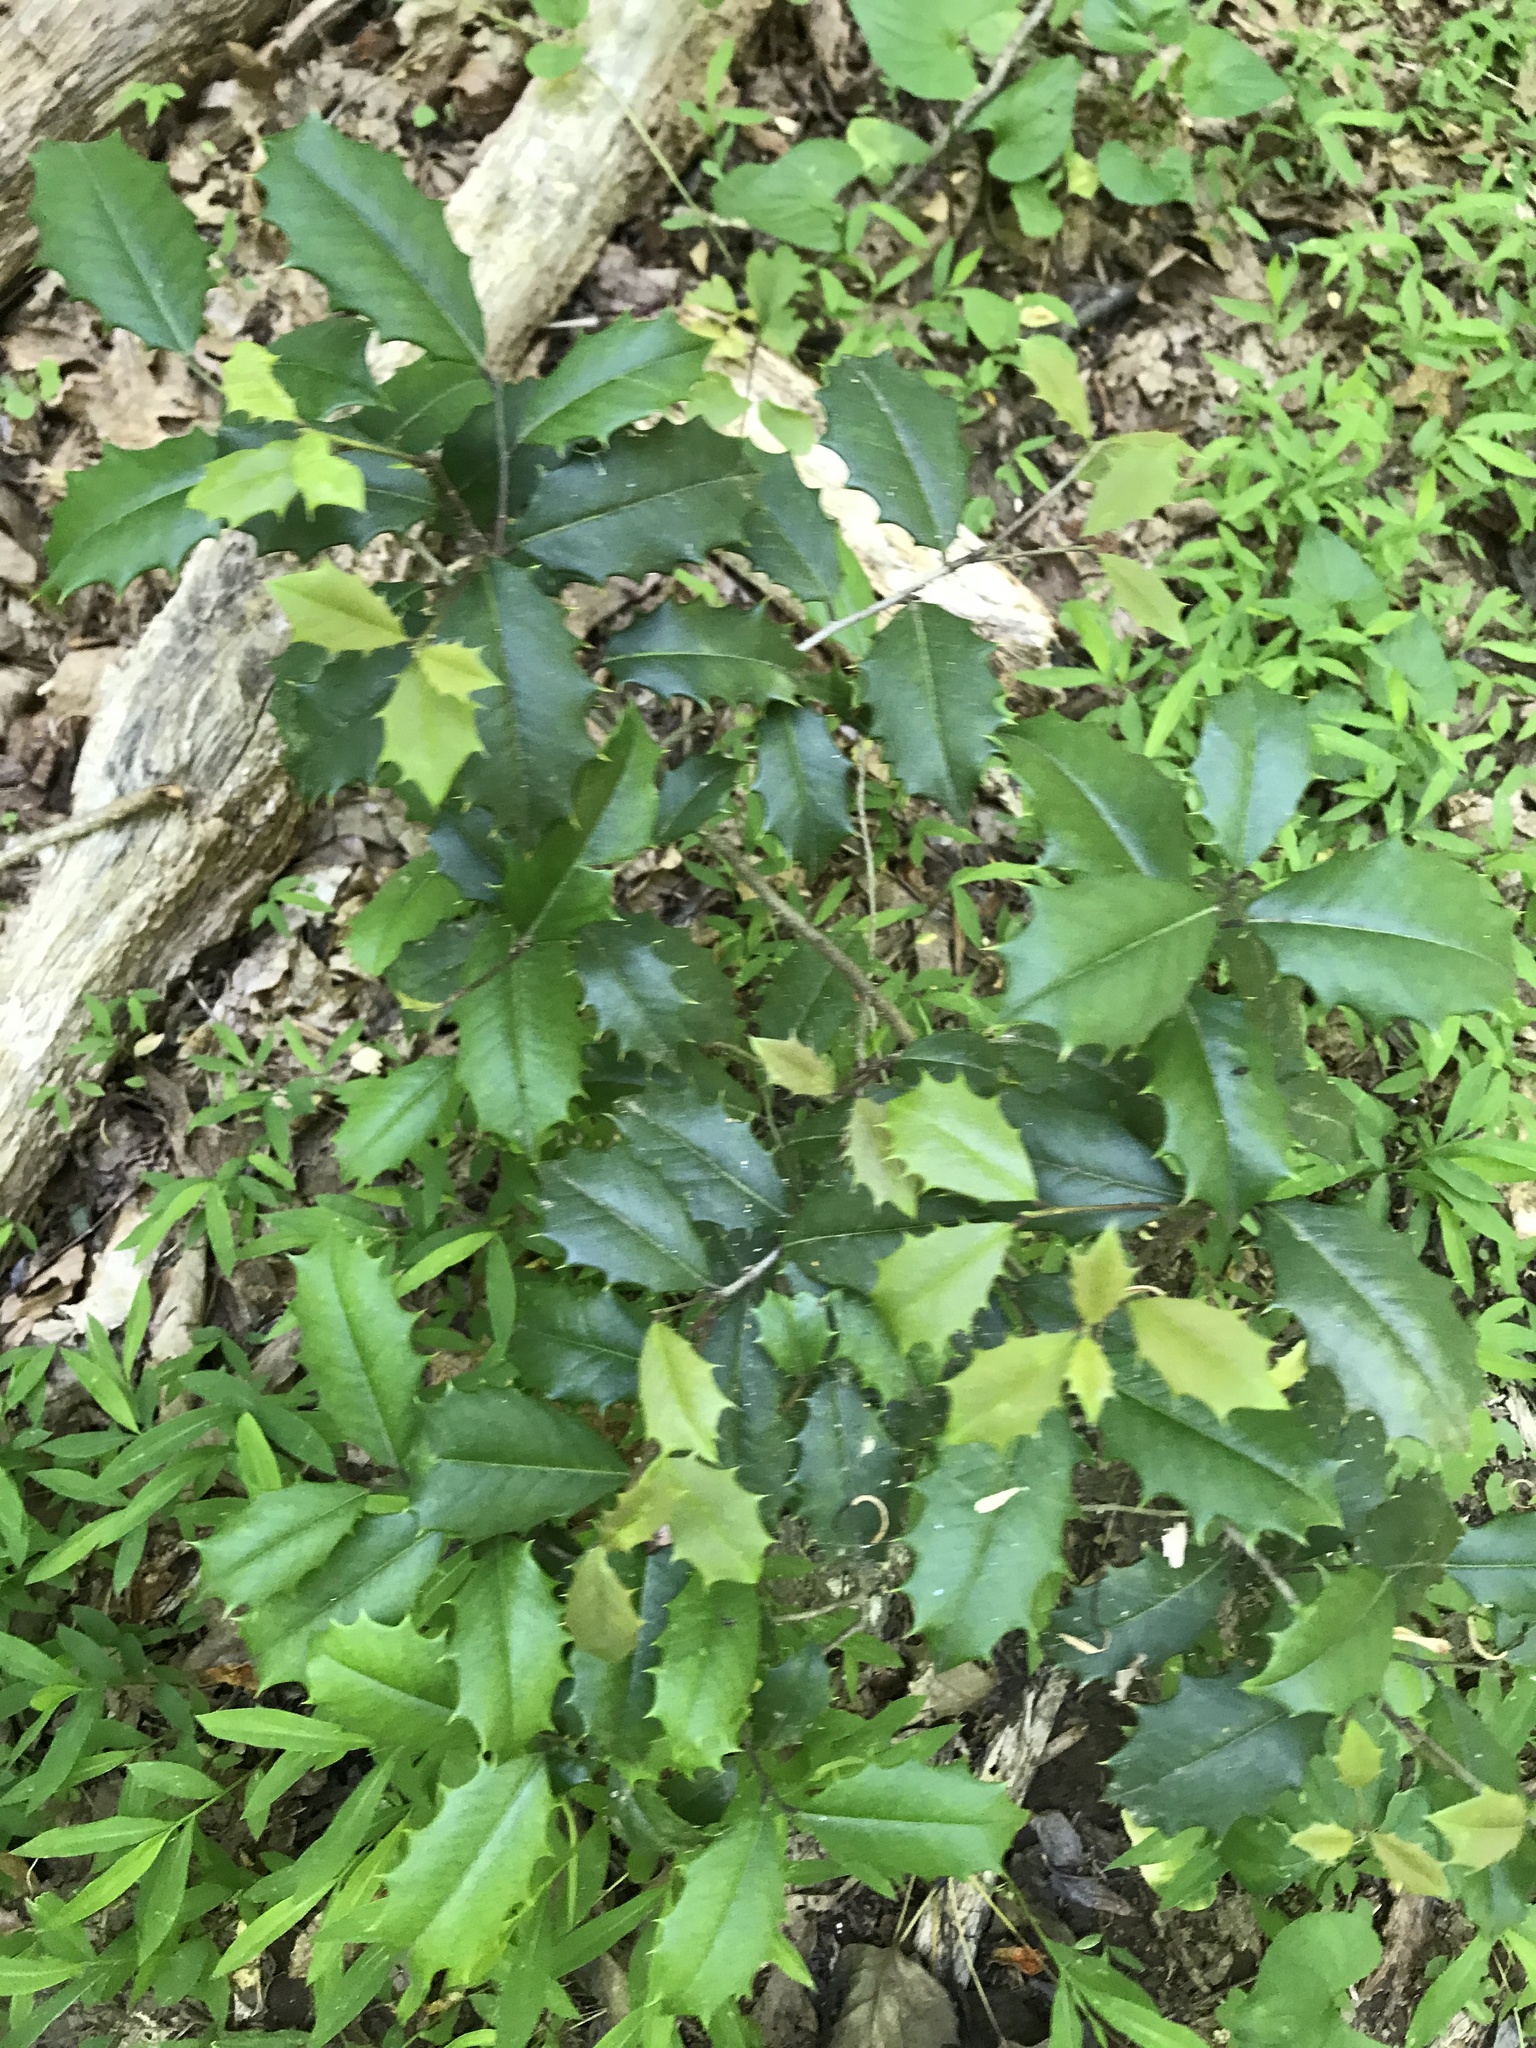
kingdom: Plantae
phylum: Tracheophyta
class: Magnoliopsida
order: Aquifoliales
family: Aquifoliaceae
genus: Ilex
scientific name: Ilex opaca
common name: American holly
